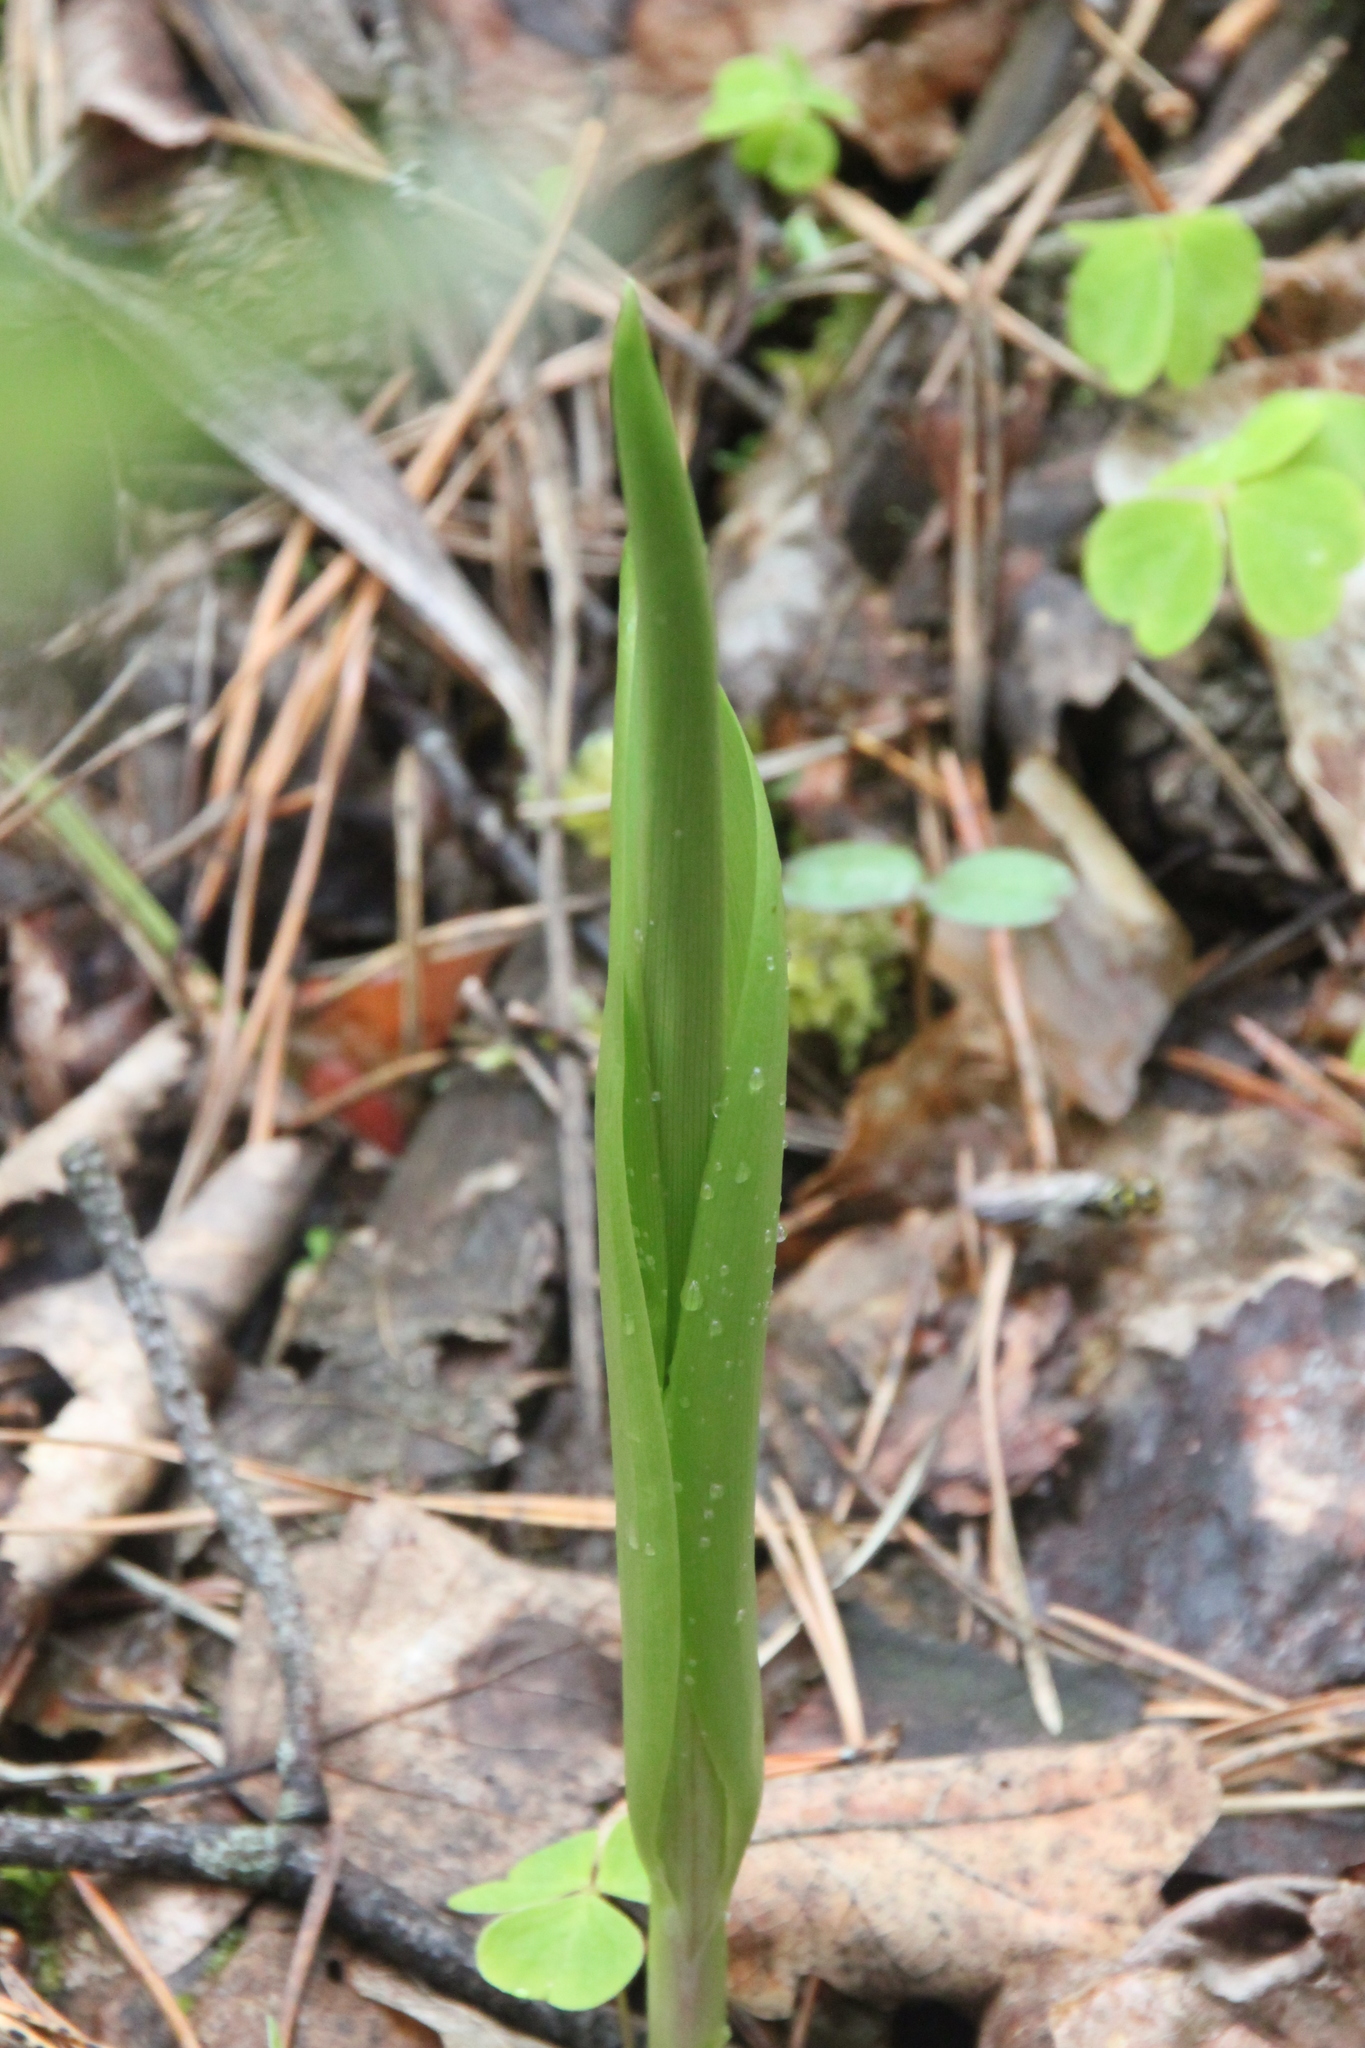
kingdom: Plantae
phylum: Tracheophyta
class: Liliopsida
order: Asparagales
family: Asparagaceae
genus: Convallaria
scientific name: Convallaria majalis
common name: Lily-of-the-valley
